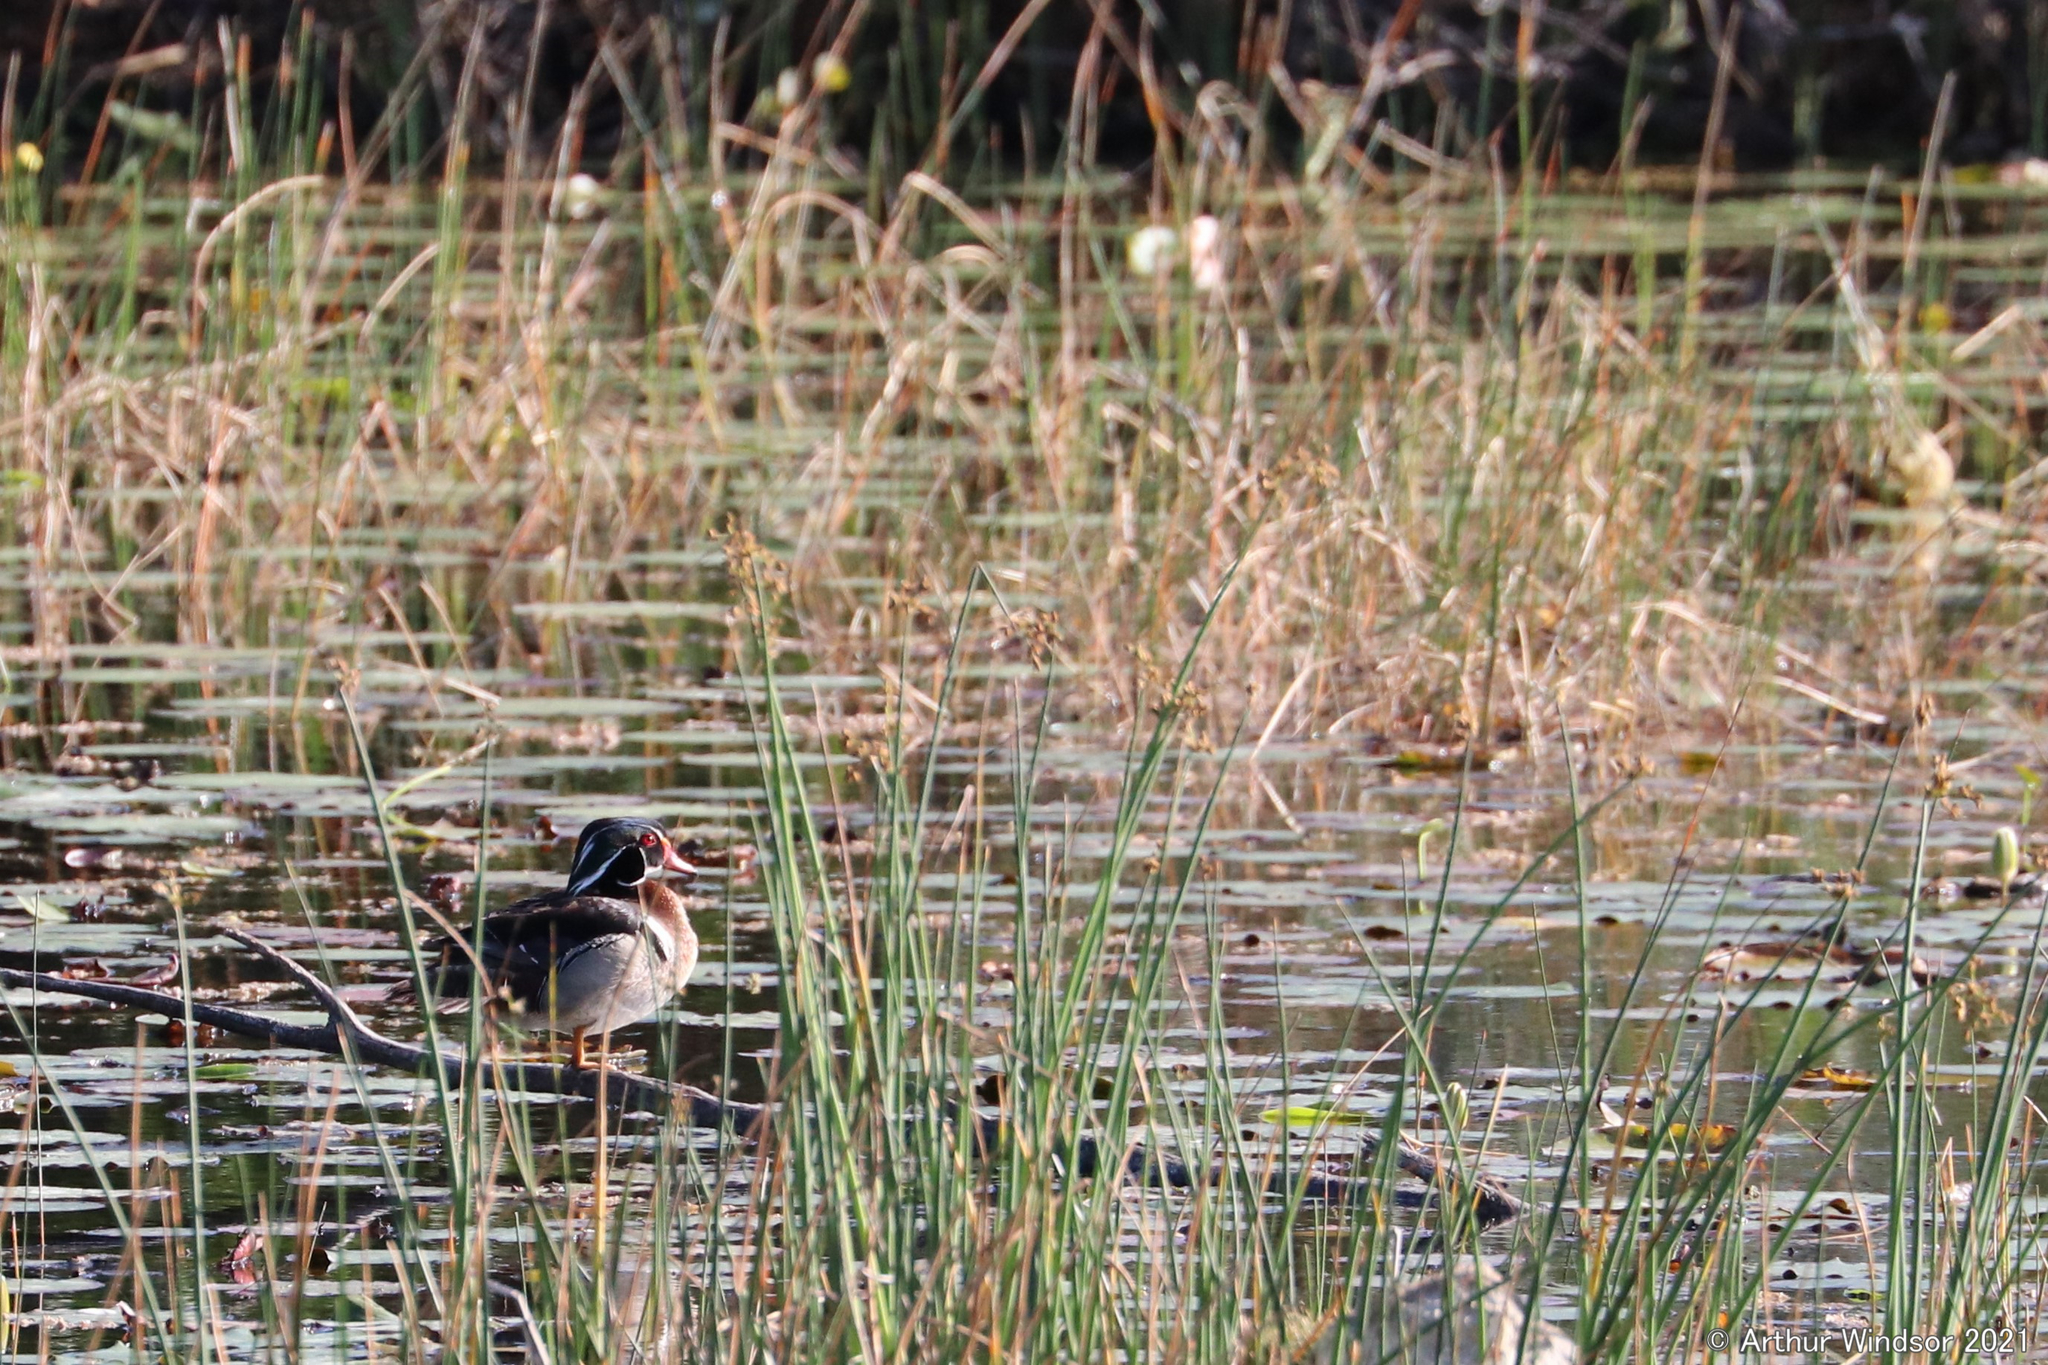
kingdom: Animalia
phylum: Chordata
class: Aves
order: Anseriformes
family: Anatidae
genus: Aix
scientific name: Aix sponsa
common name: Wood duck
